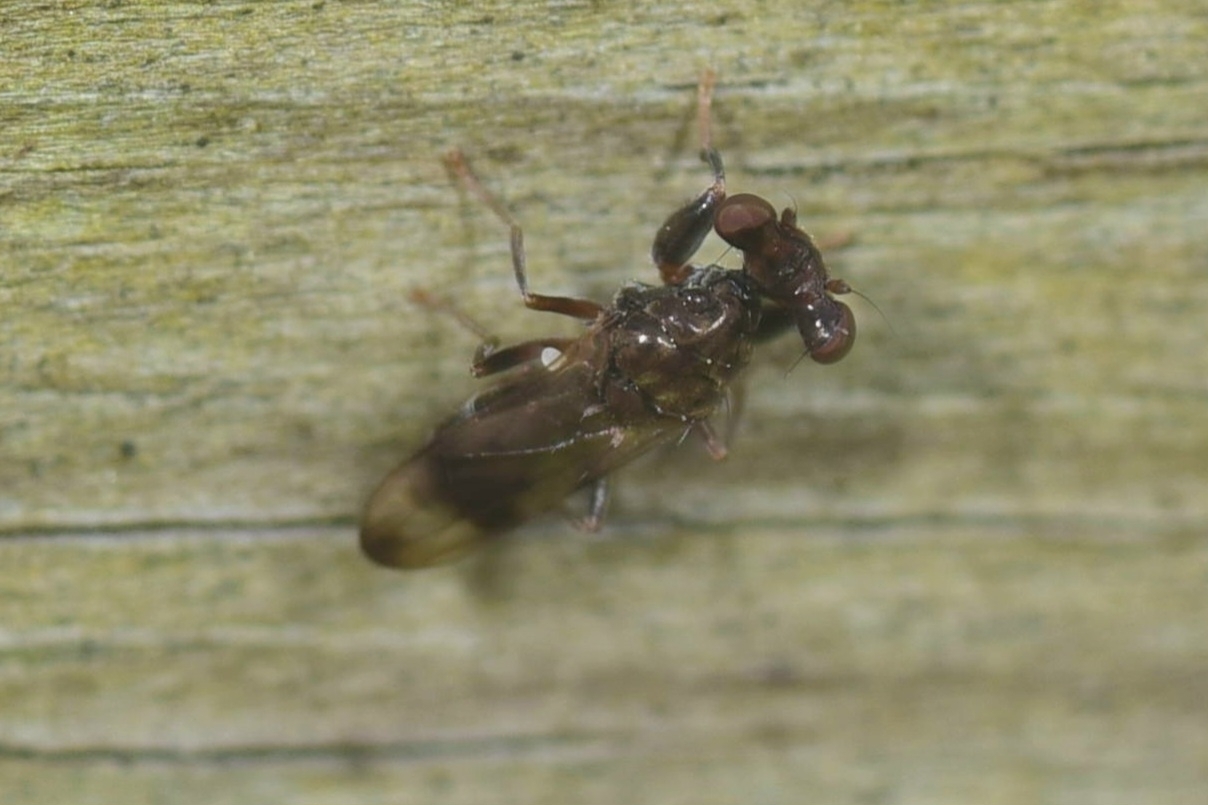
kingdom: Animalia
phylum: Arthropoda
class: Insecta
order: Diptera
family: Diopsidae
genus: Sphyracephala
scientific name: Sphyracephala brevicornis
